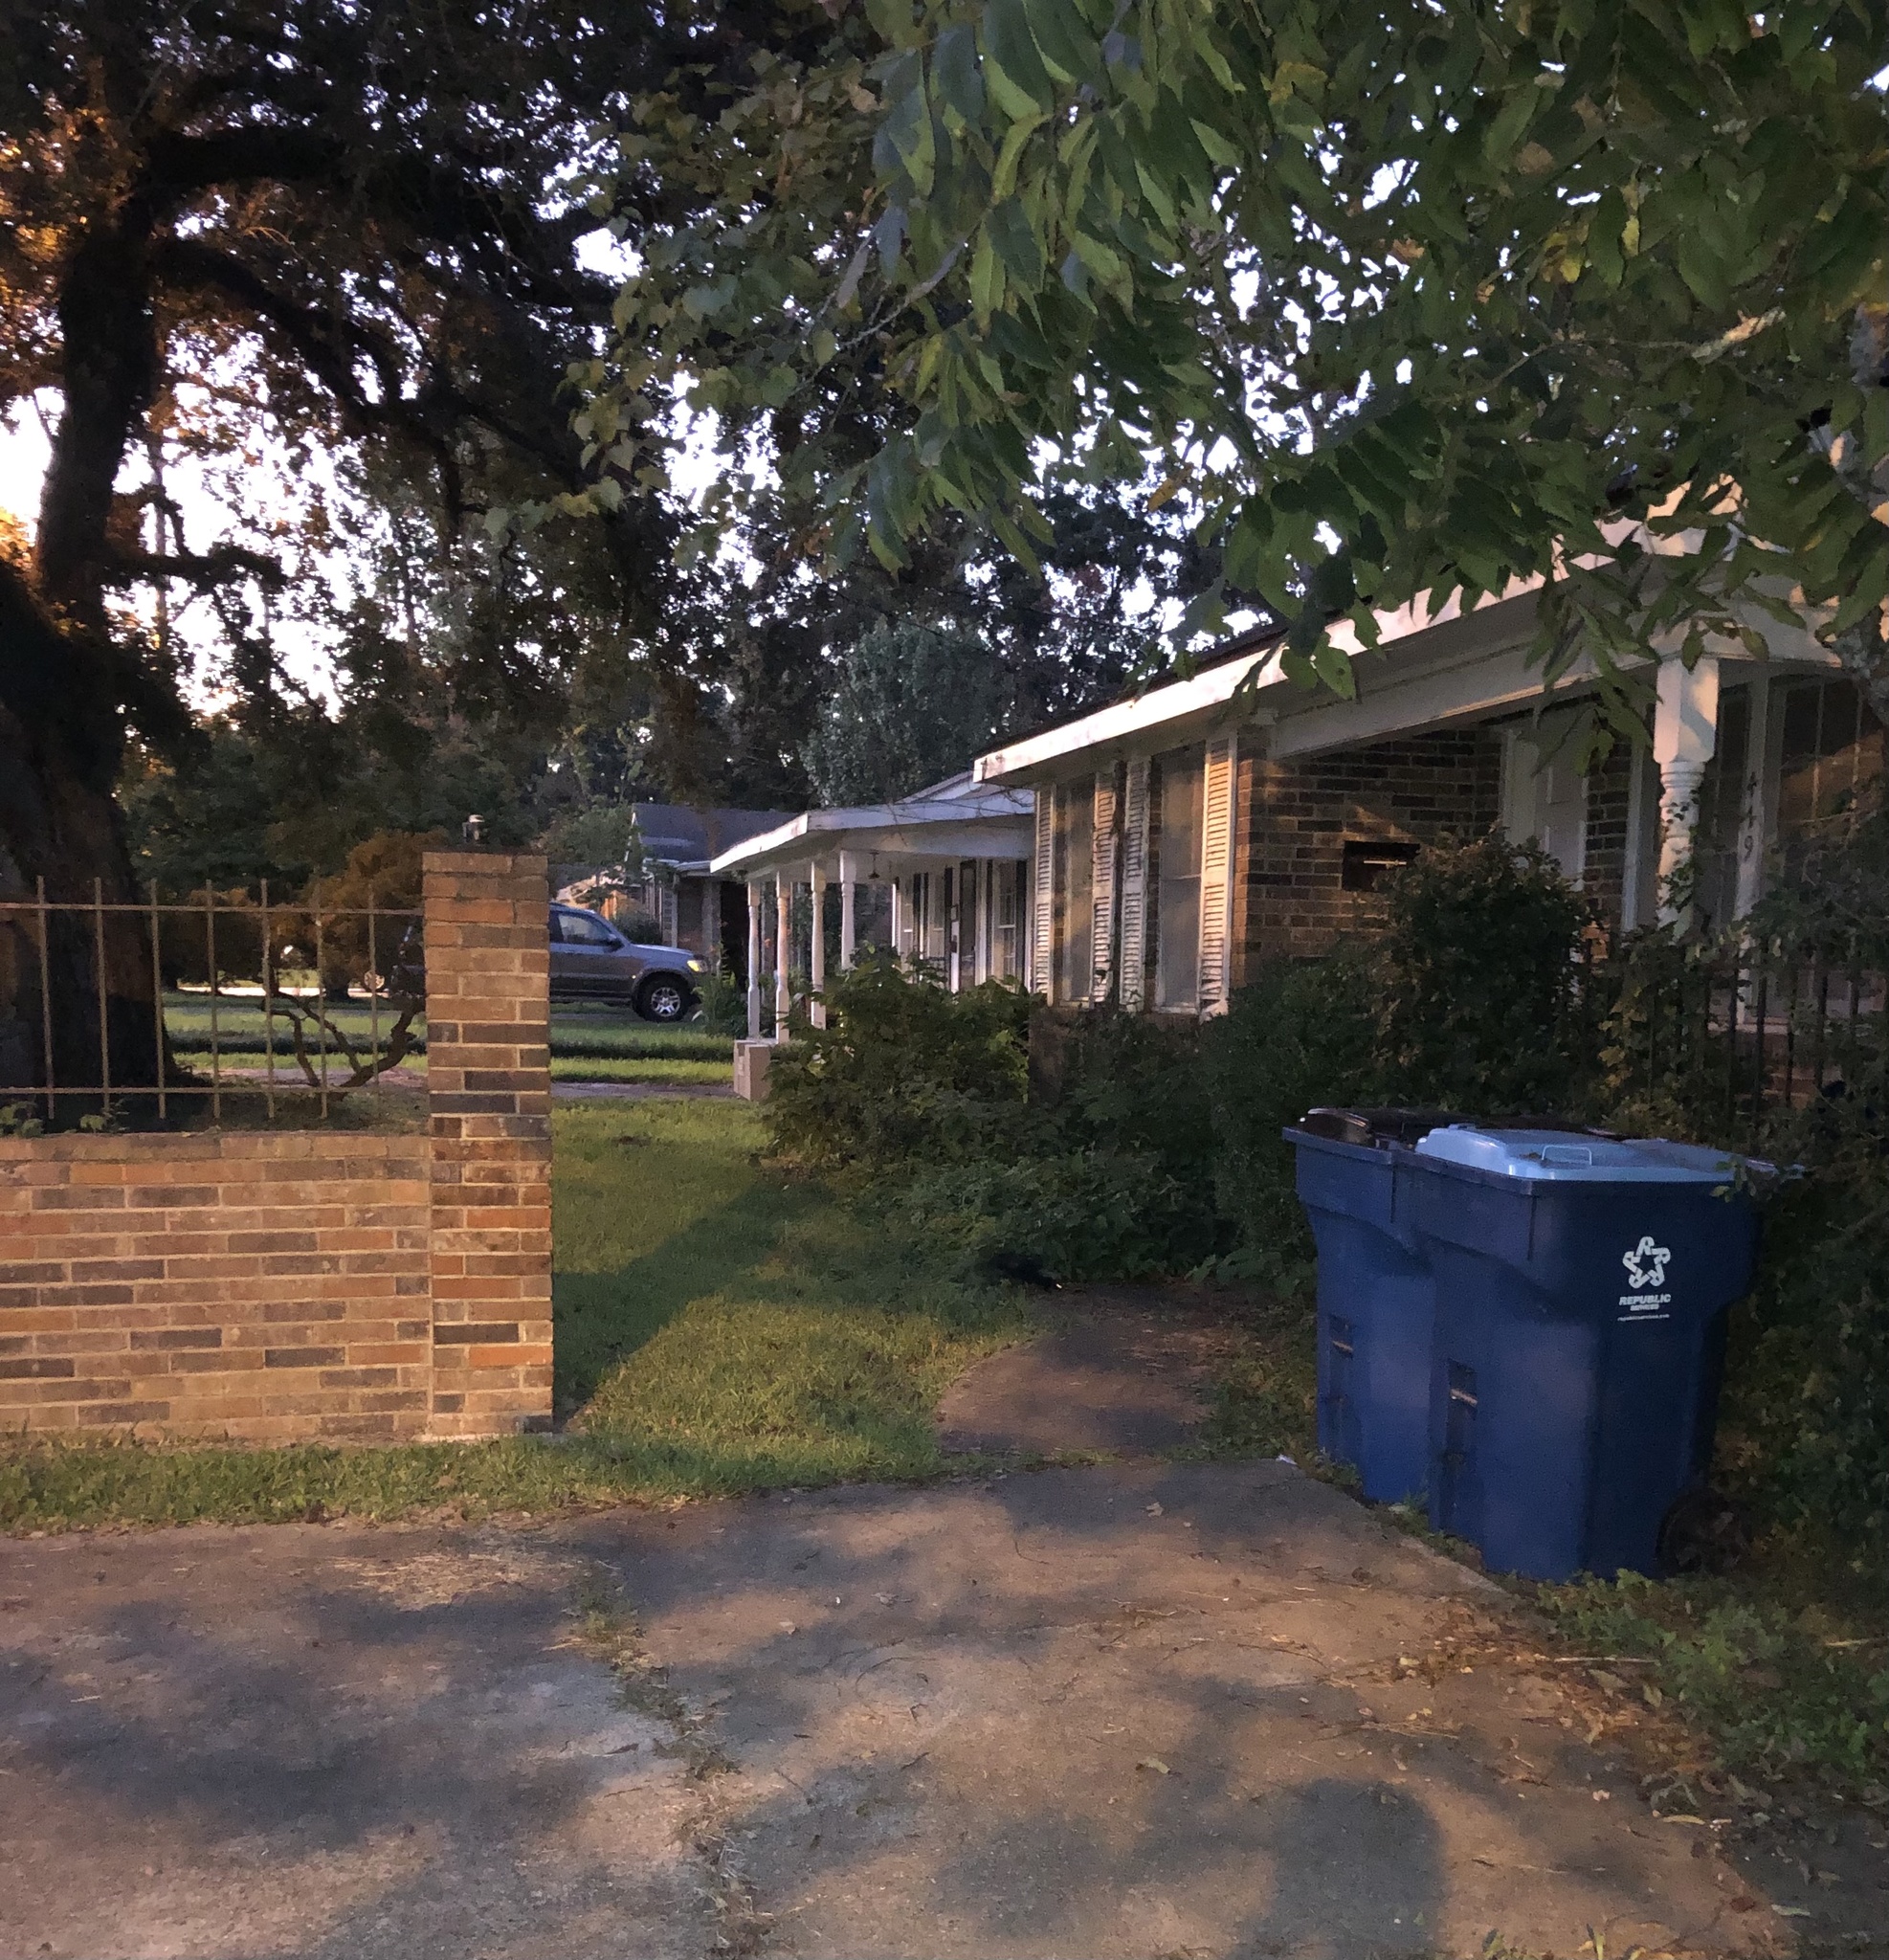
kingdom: Animalia
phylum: Chordata
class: Mammalia
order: Carnivora
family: Mephitidae
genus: Mephitis
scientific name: Mephitis mephitis
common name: Striped skunk
